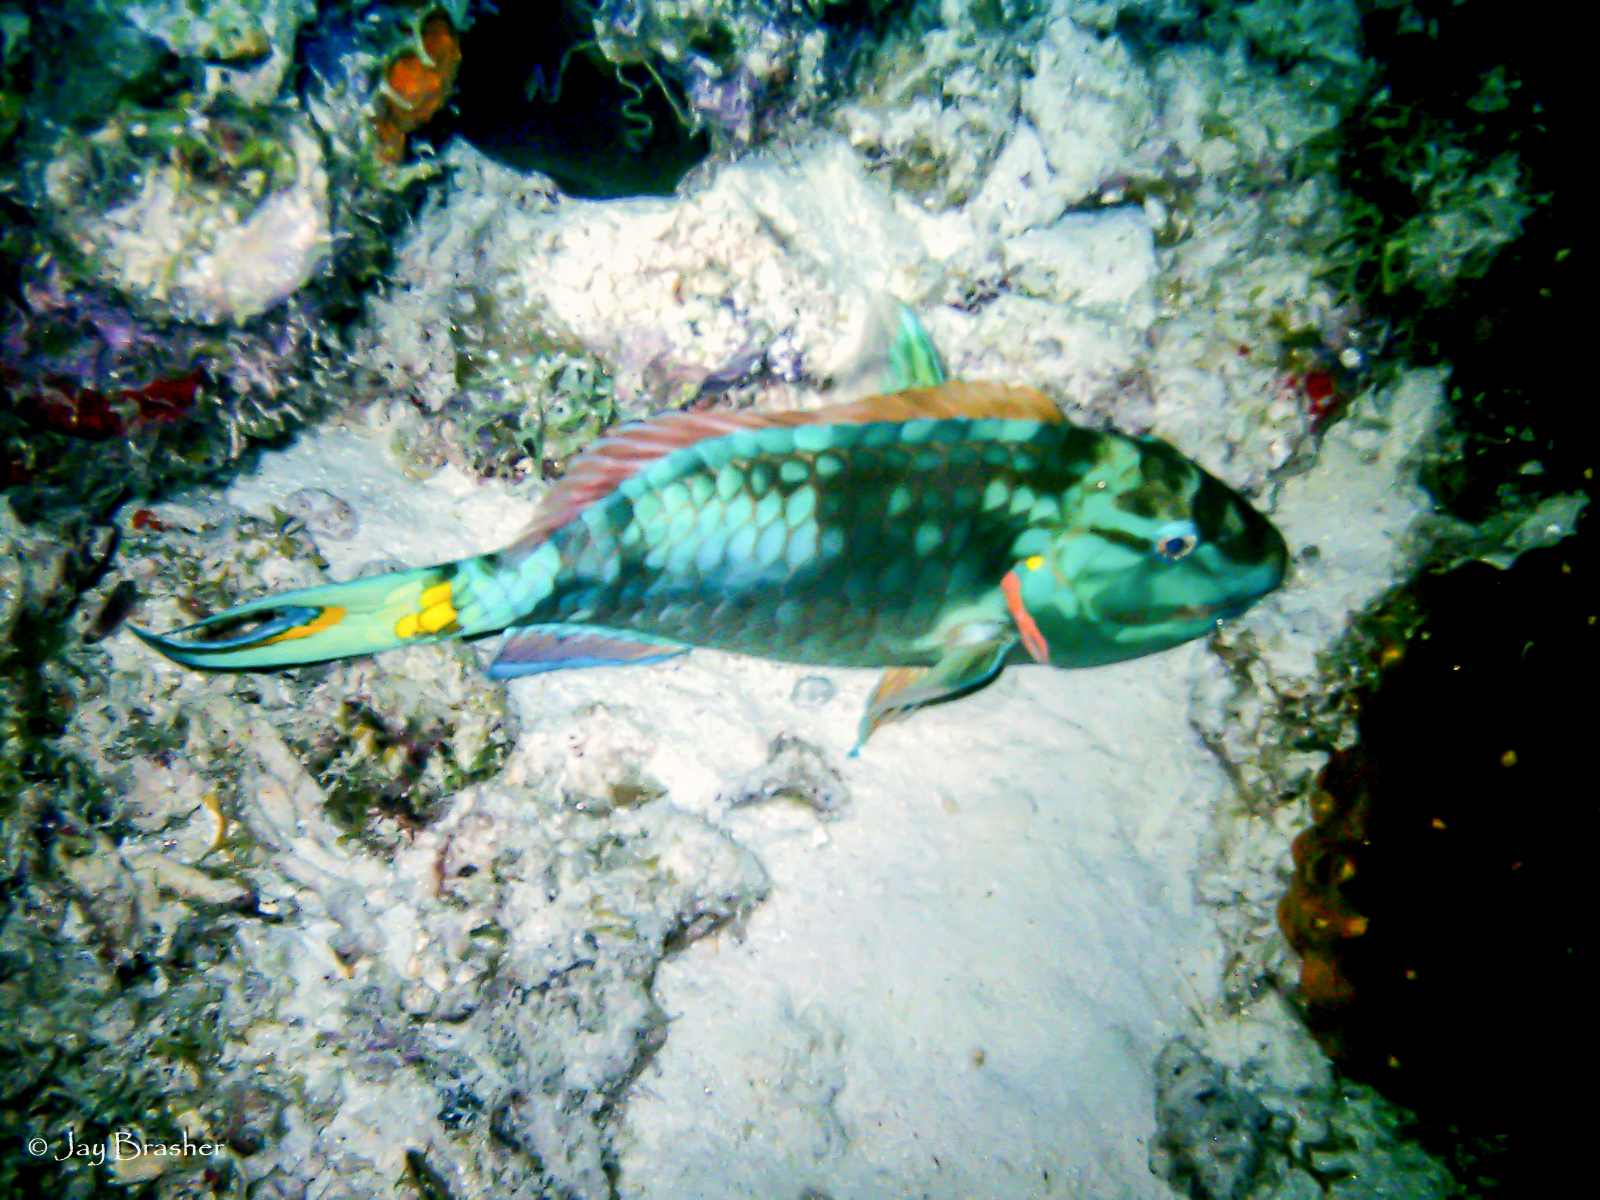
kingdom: Animalia
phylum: Chordata
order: Perciformes
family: Scaridae
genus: Sparisoma
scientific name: Sparisoma viride
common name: Stoplight parrotfish
